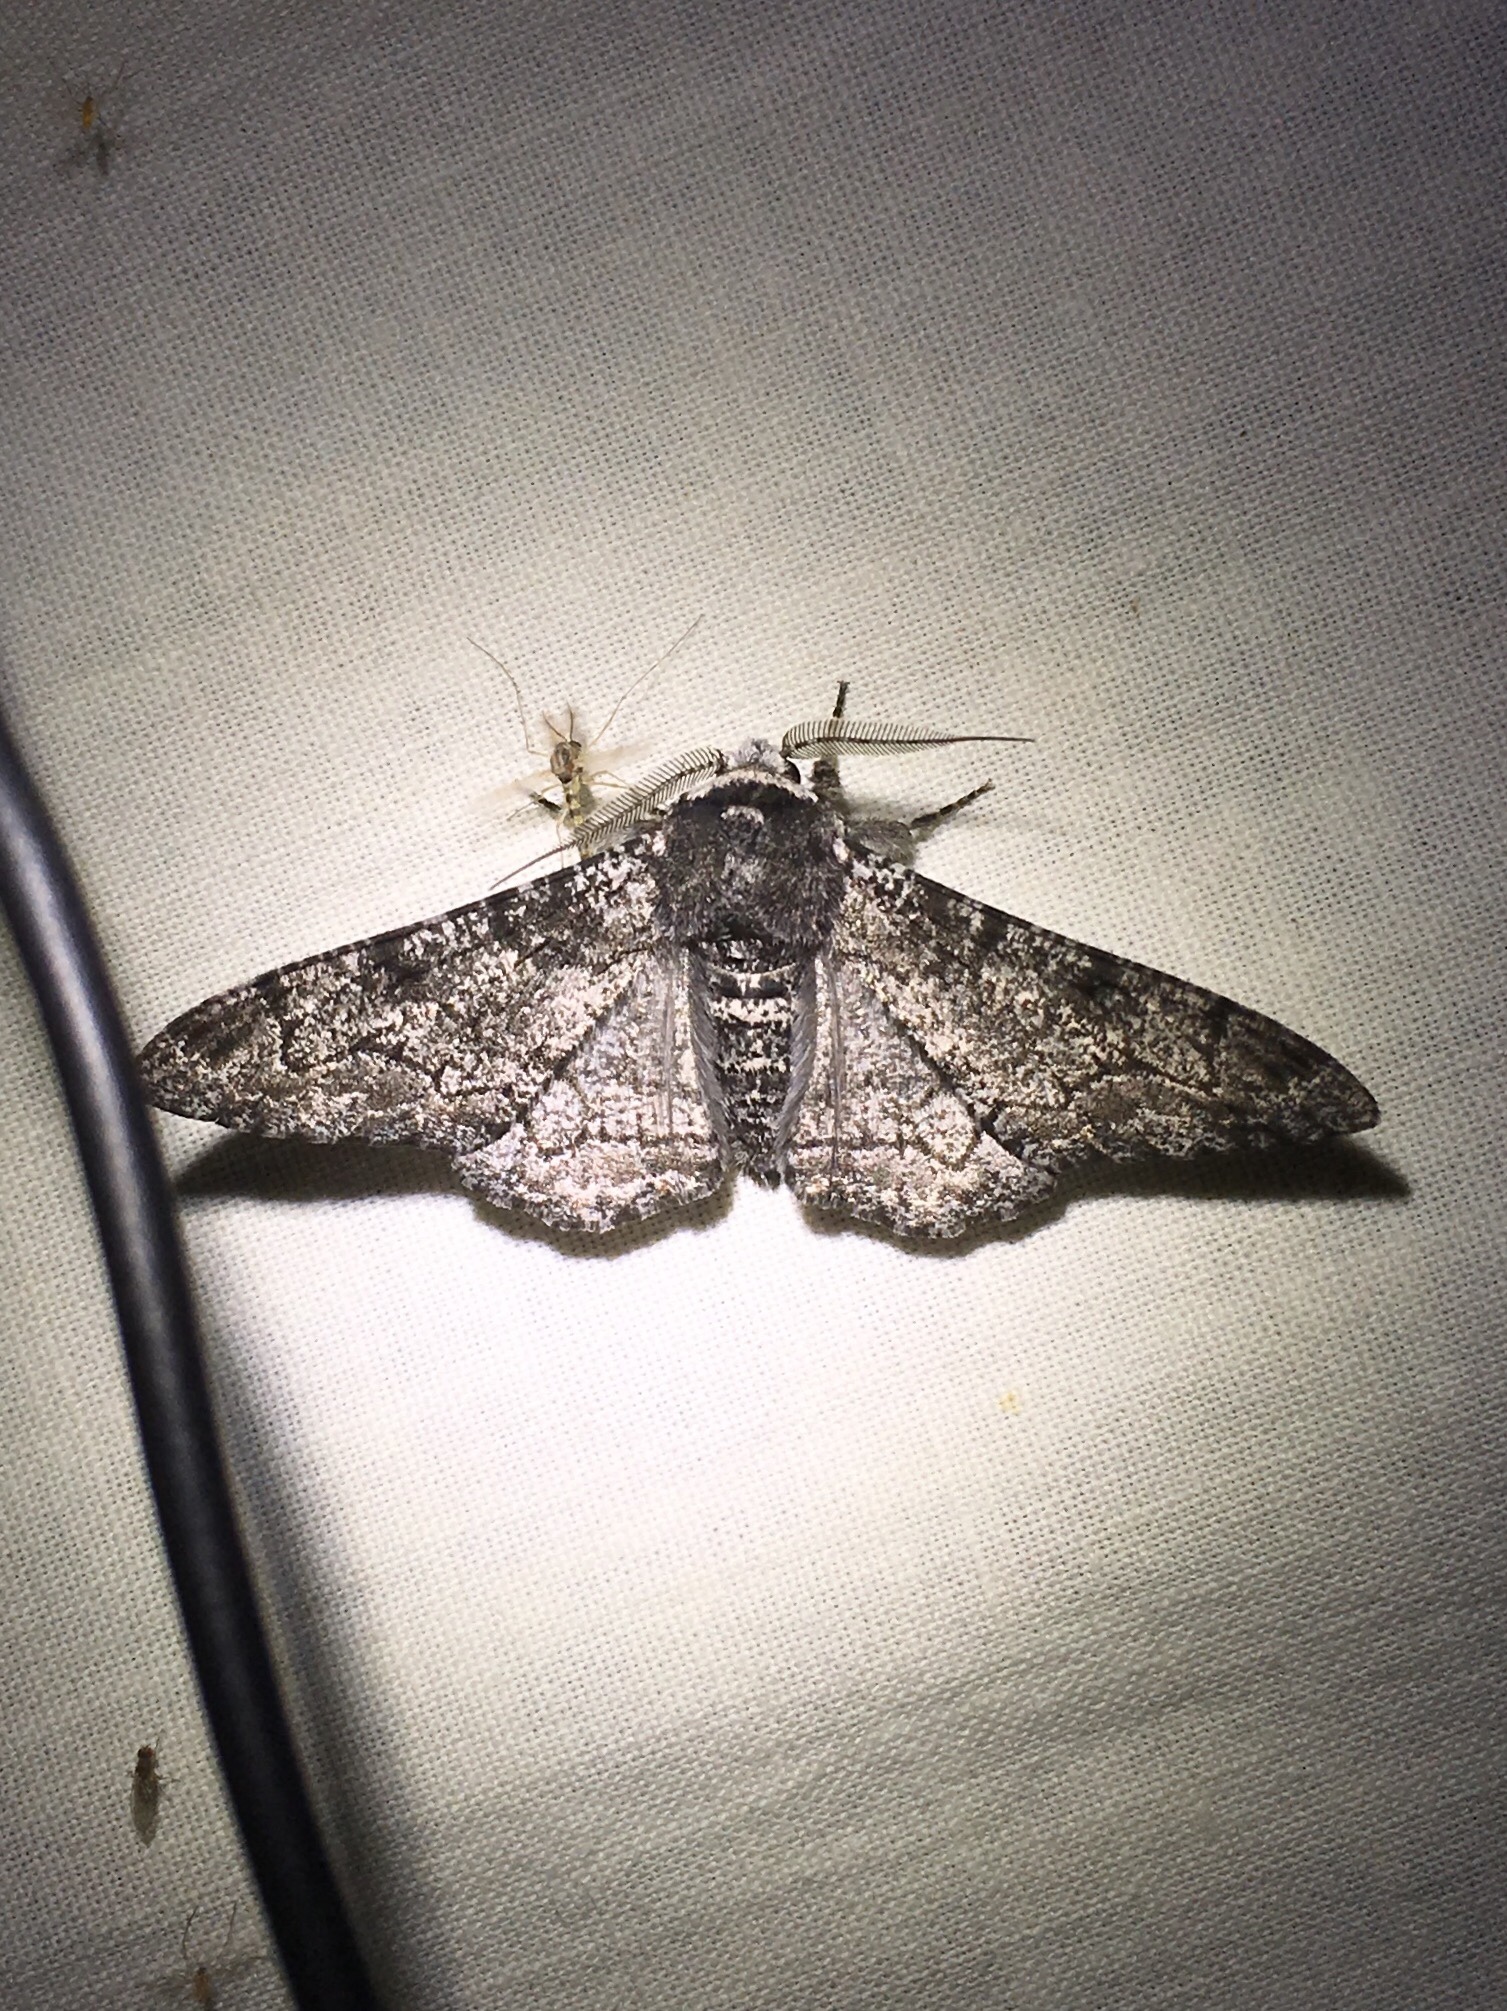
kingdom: Animalia
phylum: Arthropoda
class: Insecta
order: Lepidoptera
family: Geometridae
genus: Biston
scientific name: Biston betularia
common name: Peppered moth
